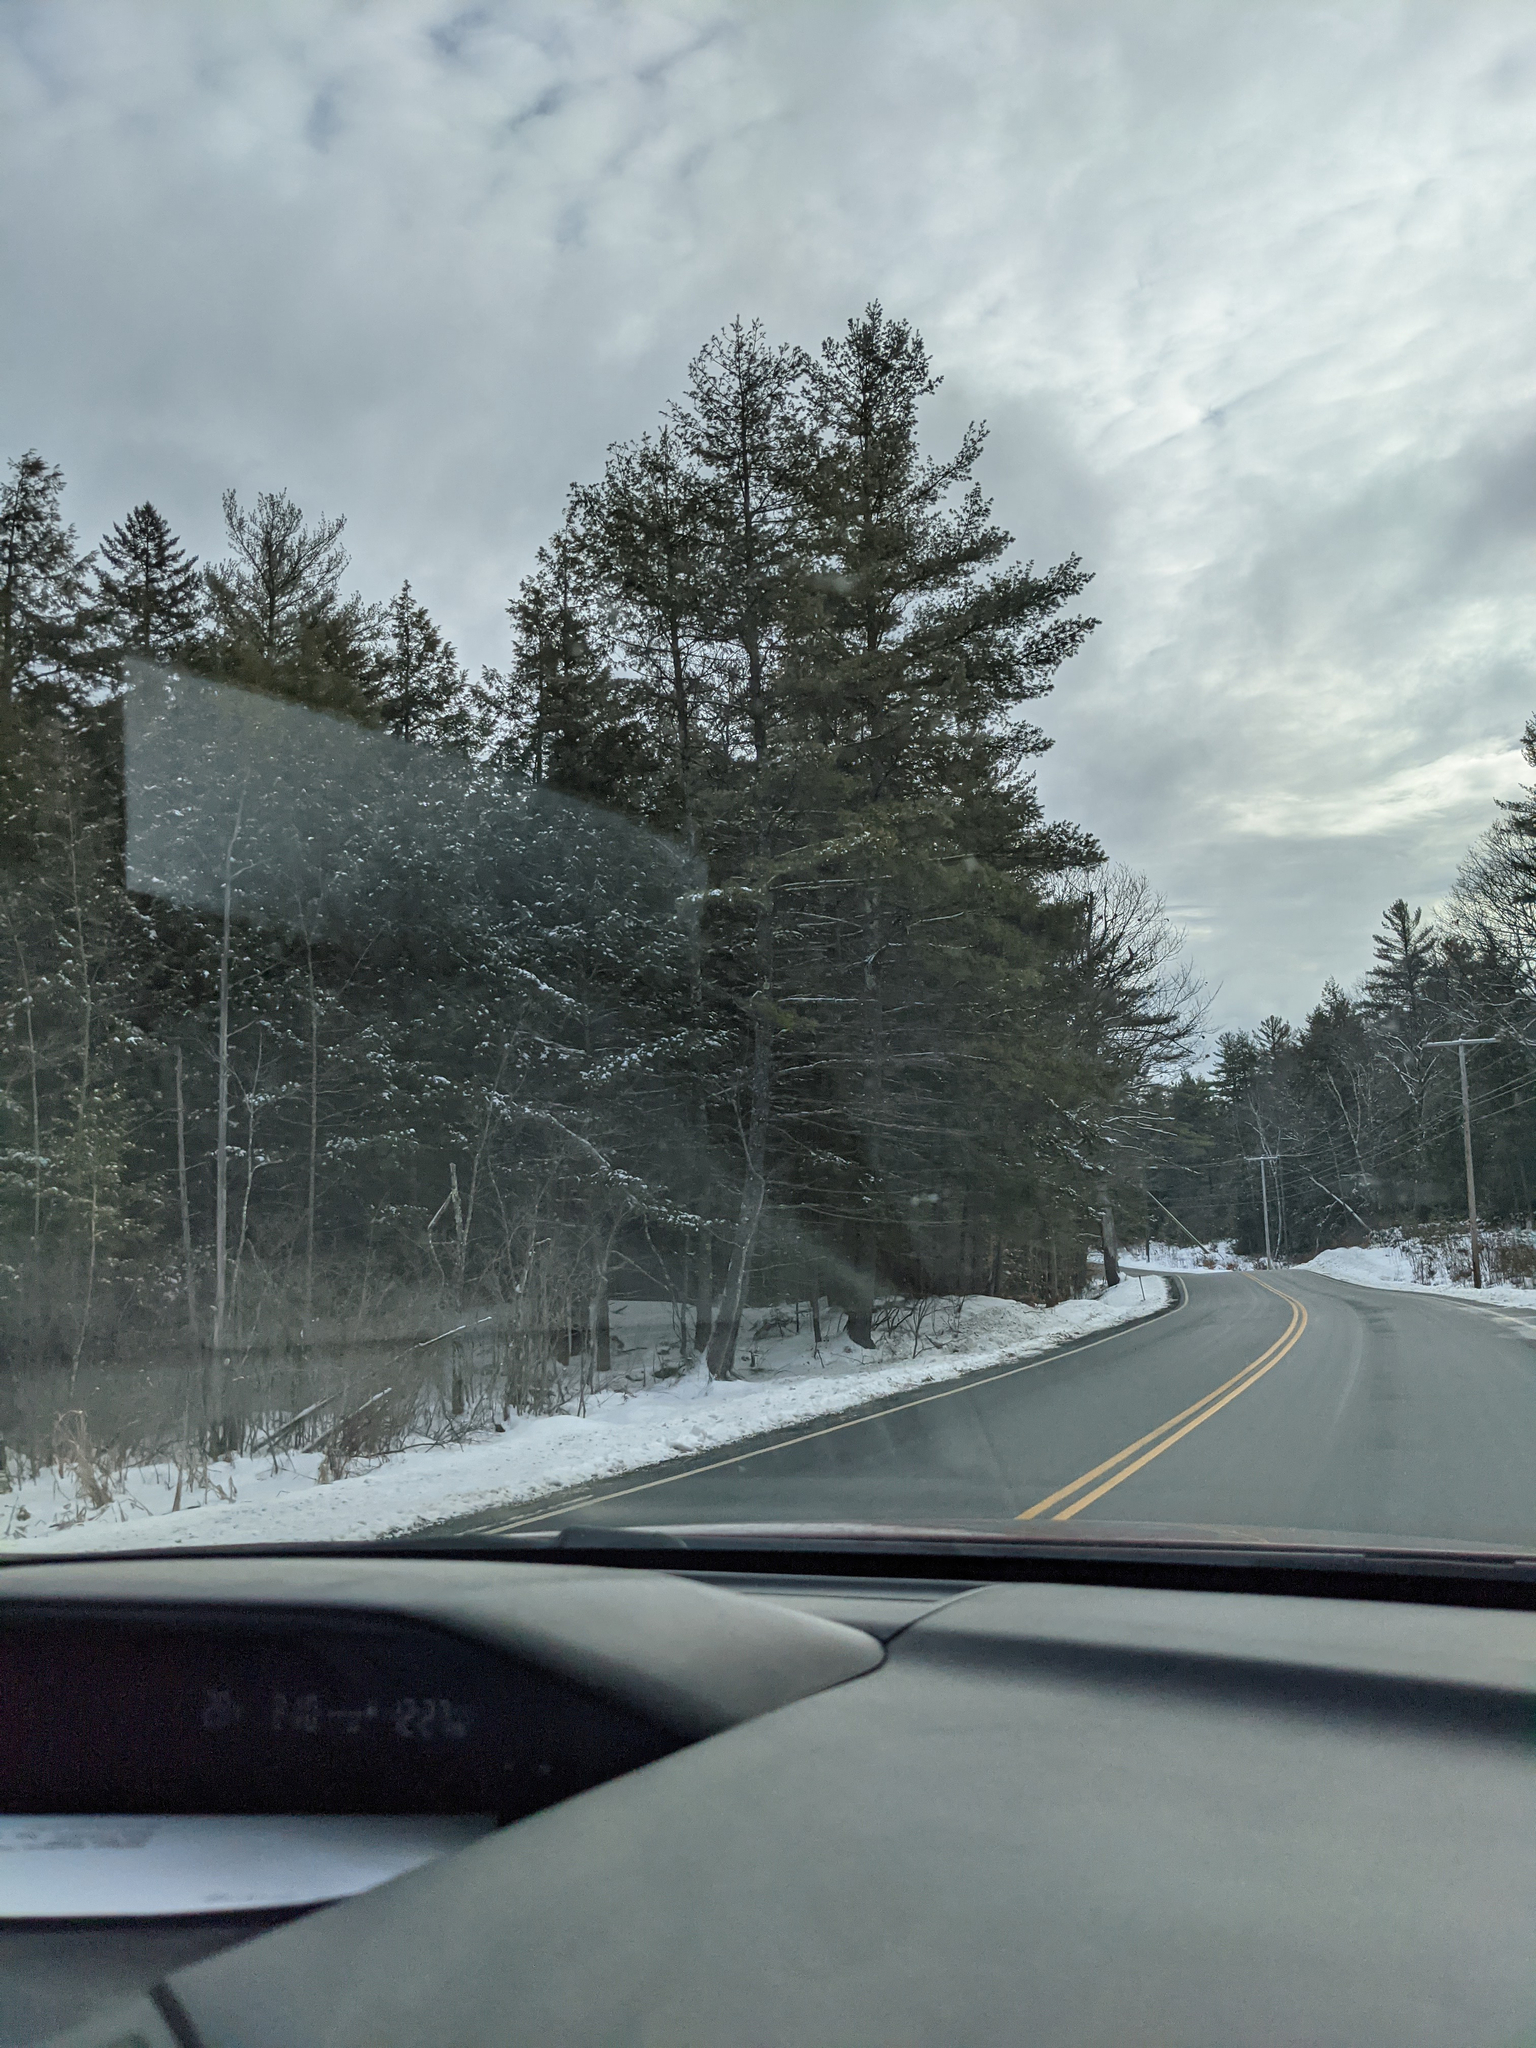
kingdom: Plantae
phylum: Tracheophyta
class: Pinopsida
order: Pinales
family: Pinaceae
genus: Pinus
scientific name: Pinus strobus
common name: Weymouth pine
